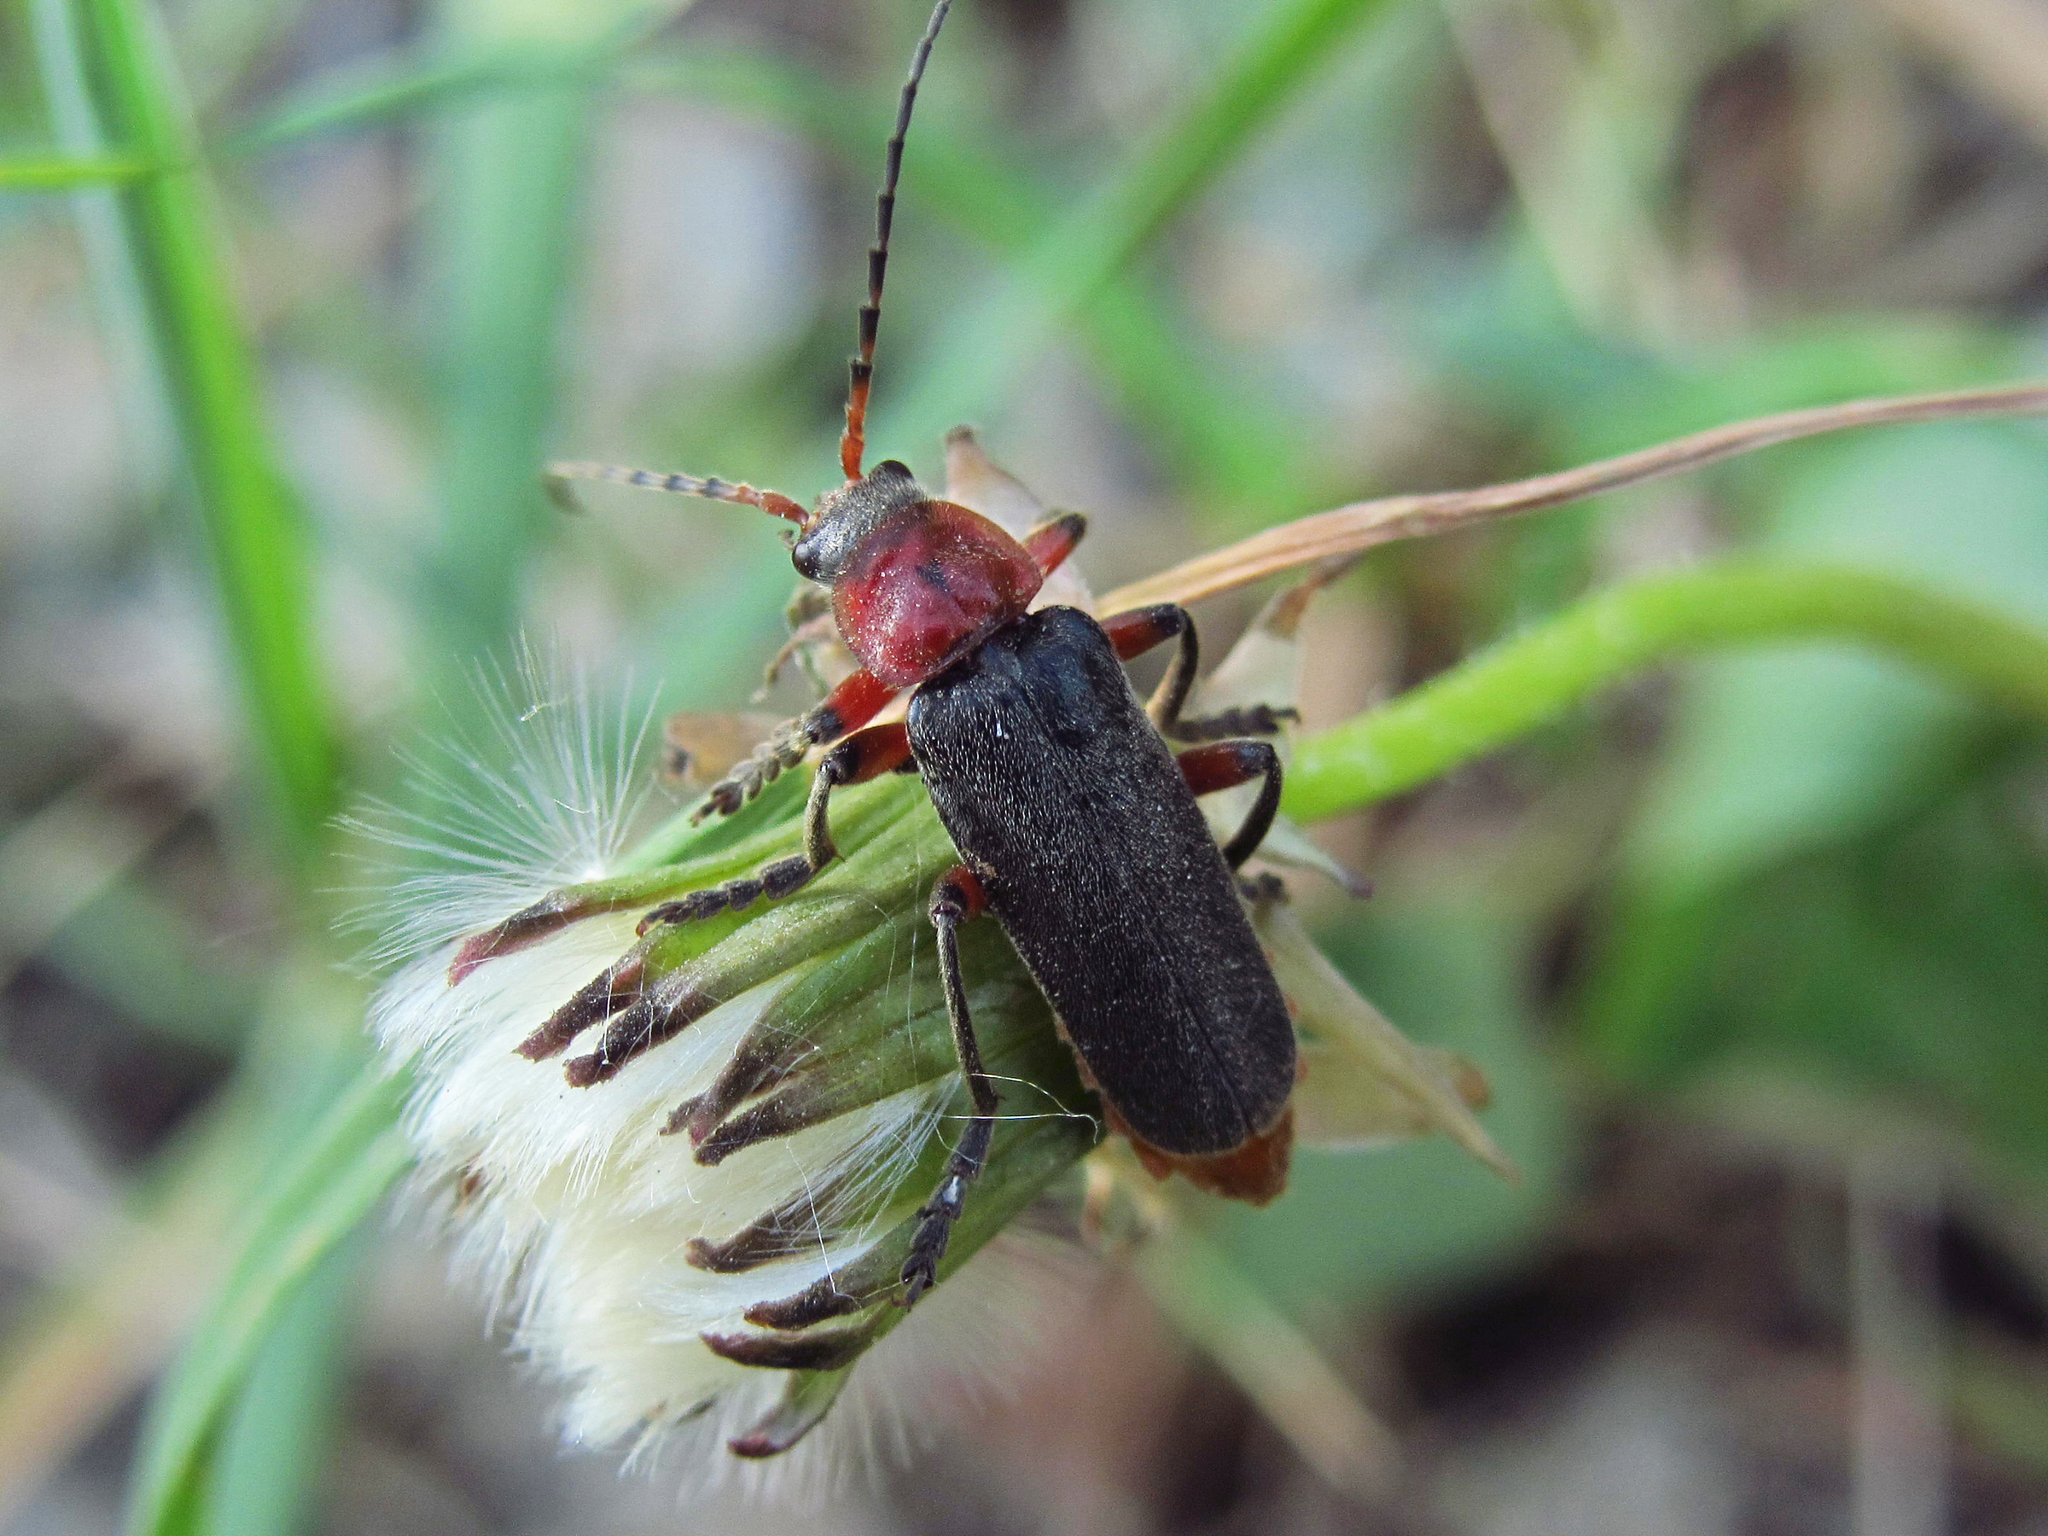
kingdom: Animalia
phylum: Arthropoda
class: Insecta
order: Coleoptera
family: Cantharidae
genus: Cantharis
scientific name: Cantharis rustica
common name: Soldier beetle
